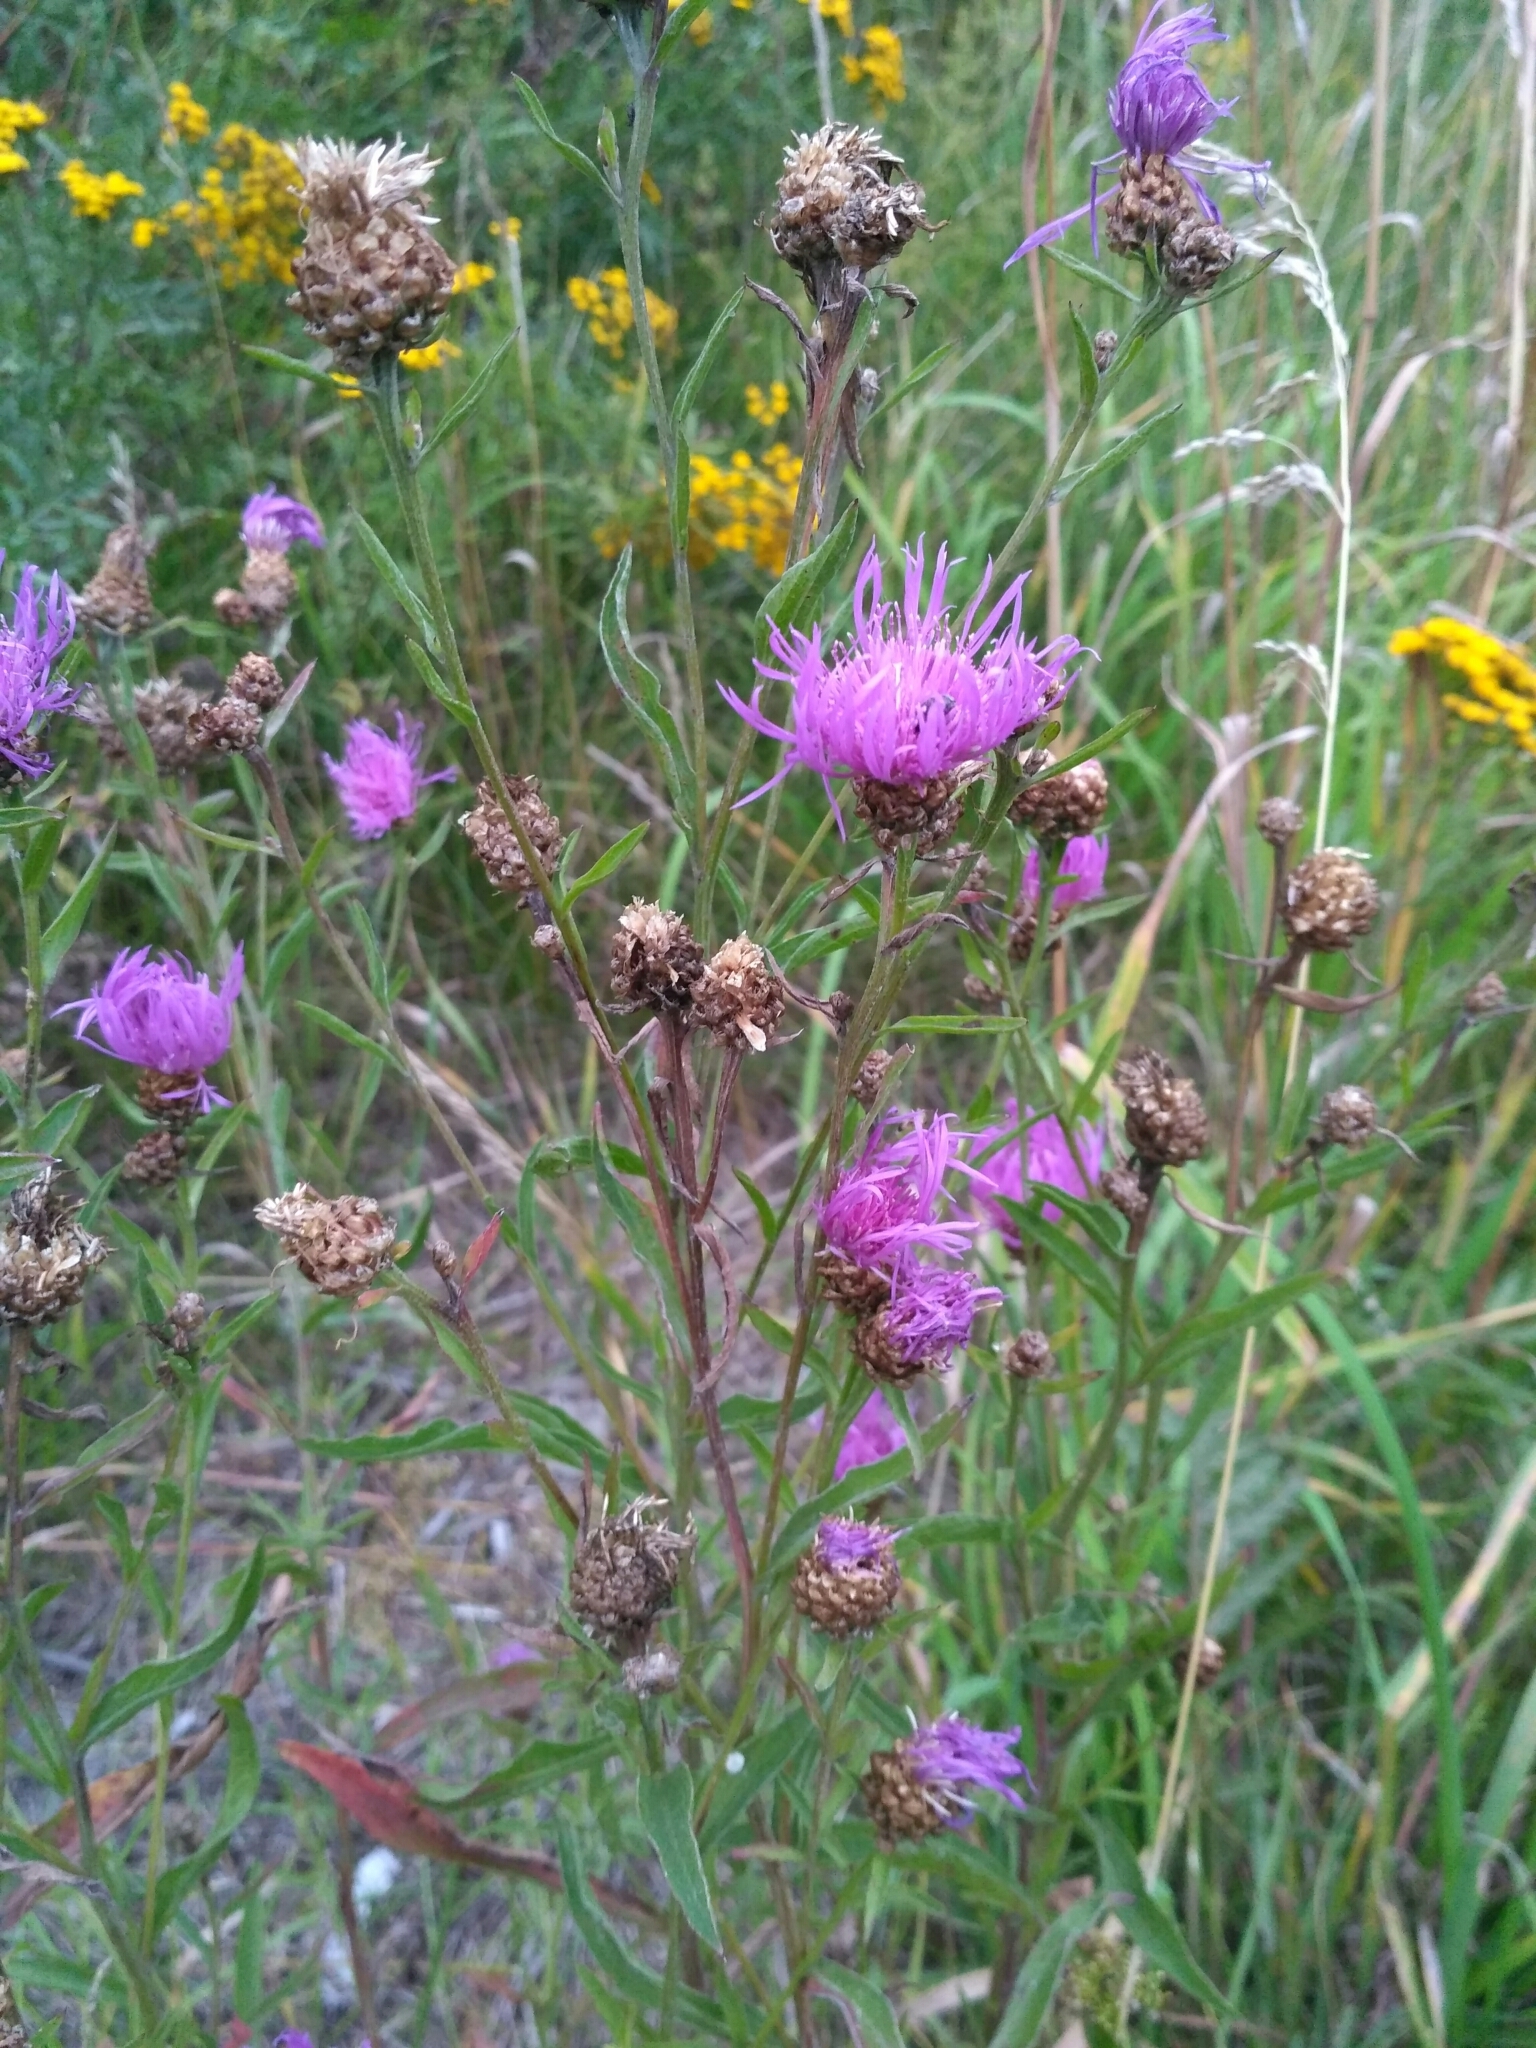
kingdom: Plantae
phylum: Tracheophyta
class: Magnoliopsida
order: Asterales
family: Asteraceae
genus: Centaurea
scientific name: Centaurea jacea
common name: Brown knapweed
